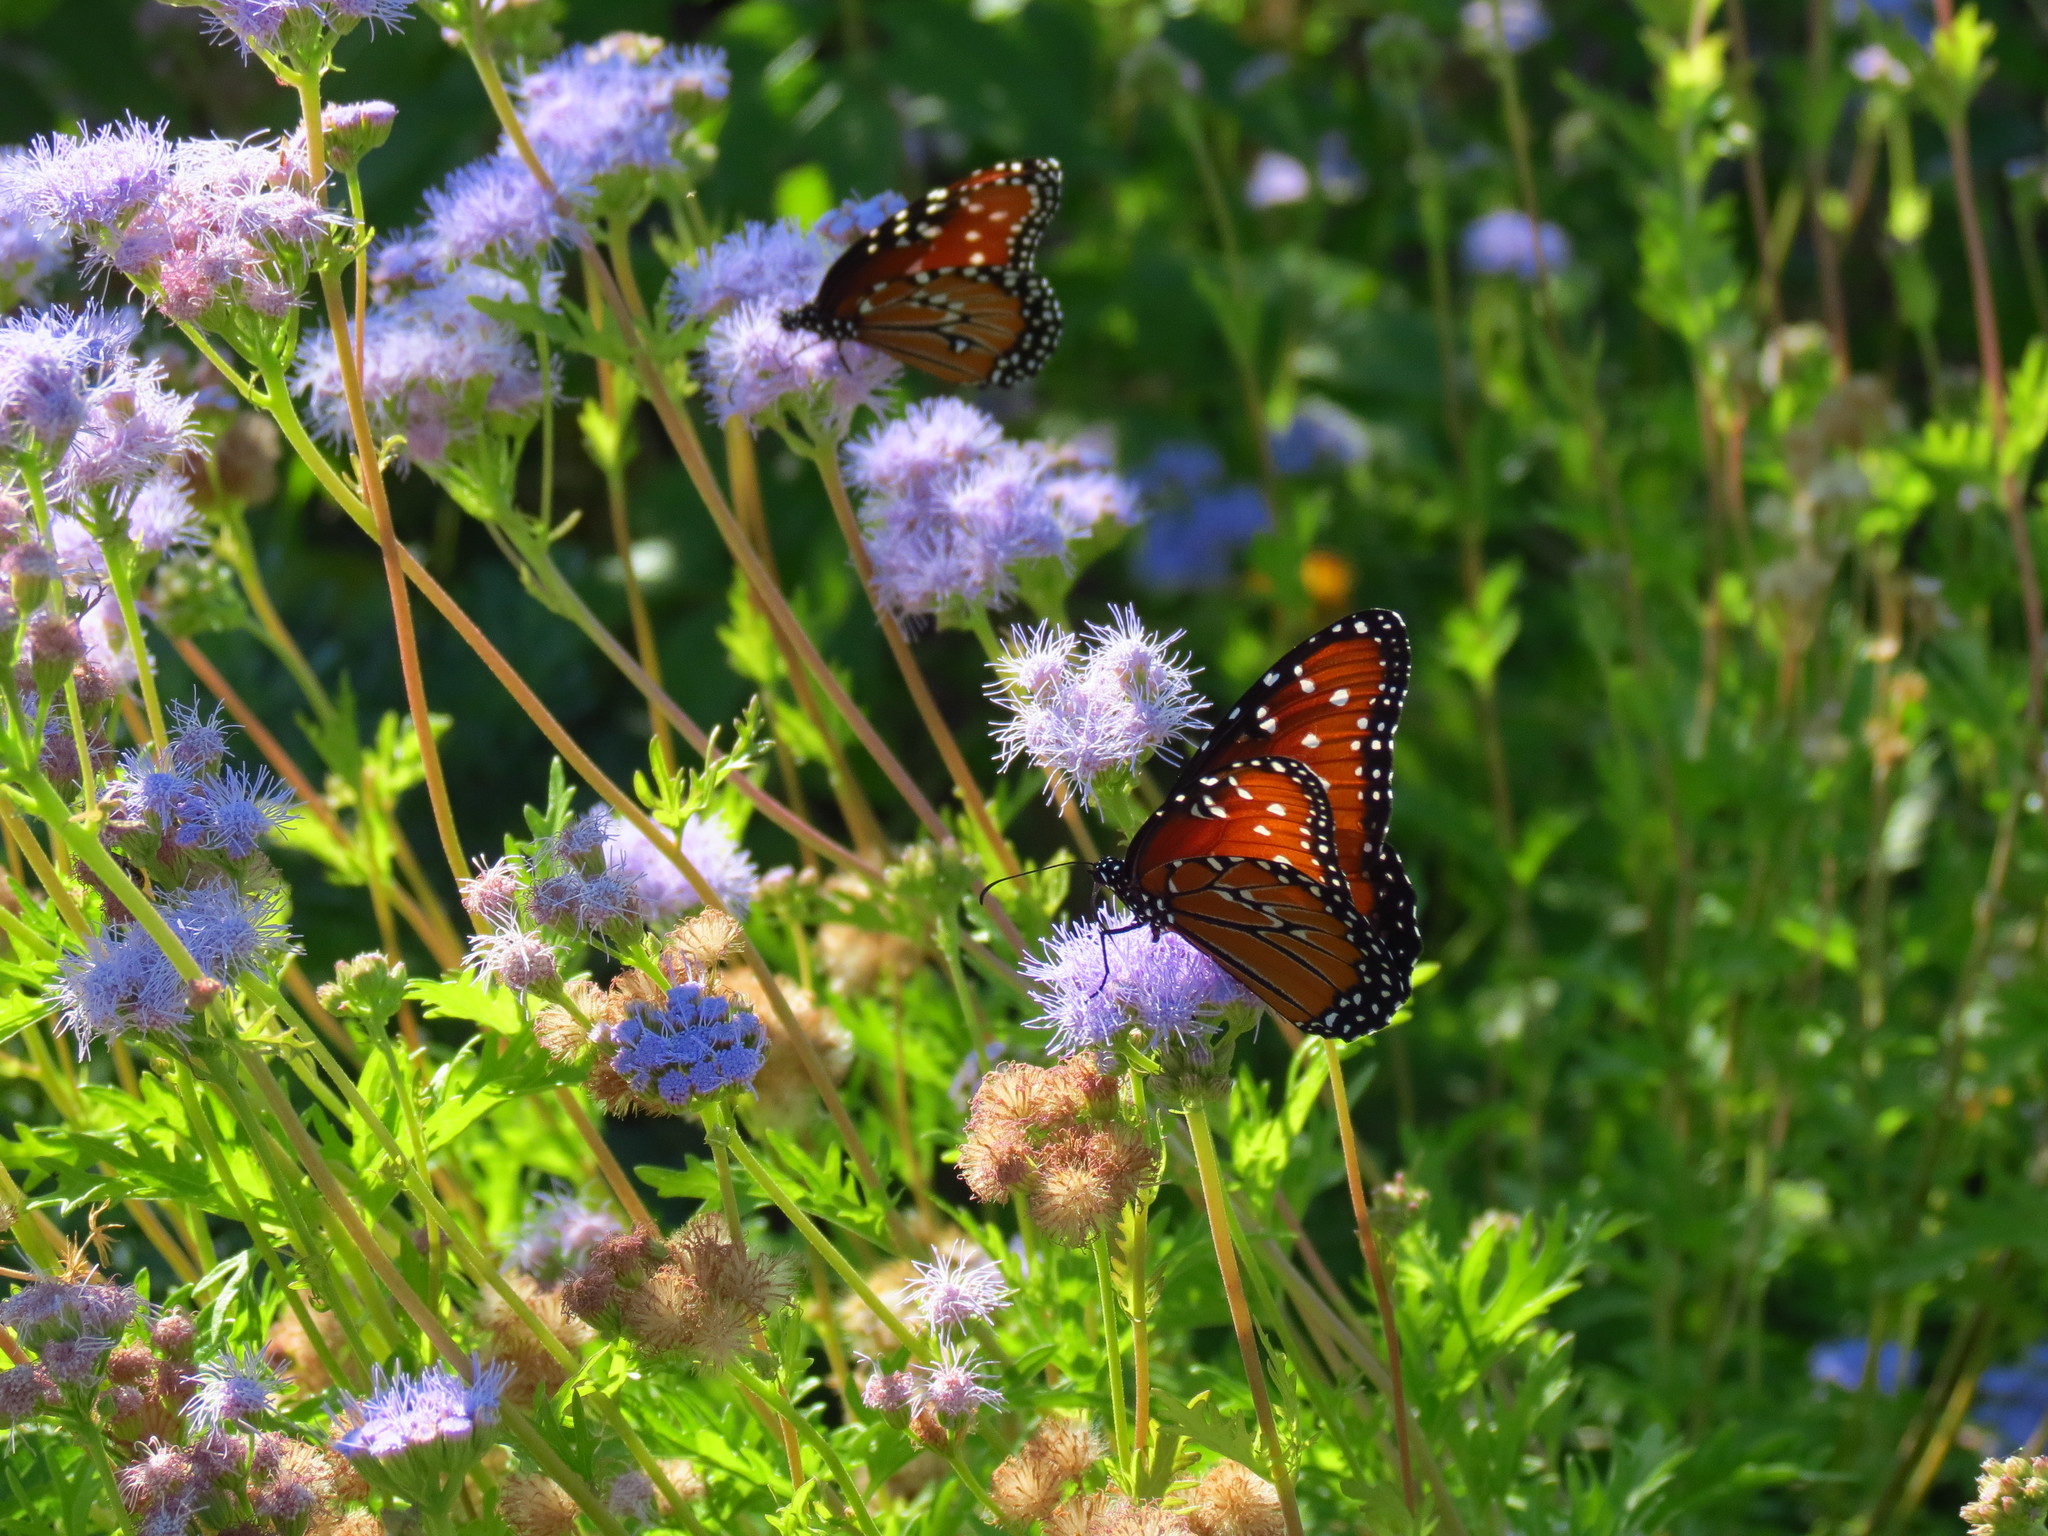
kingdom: Animalia
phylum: Arthropoda
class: Insecta
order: Lepidoptera
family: Nymphalidae
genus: Danaus
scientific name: Danaus gilippus
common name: Queen
